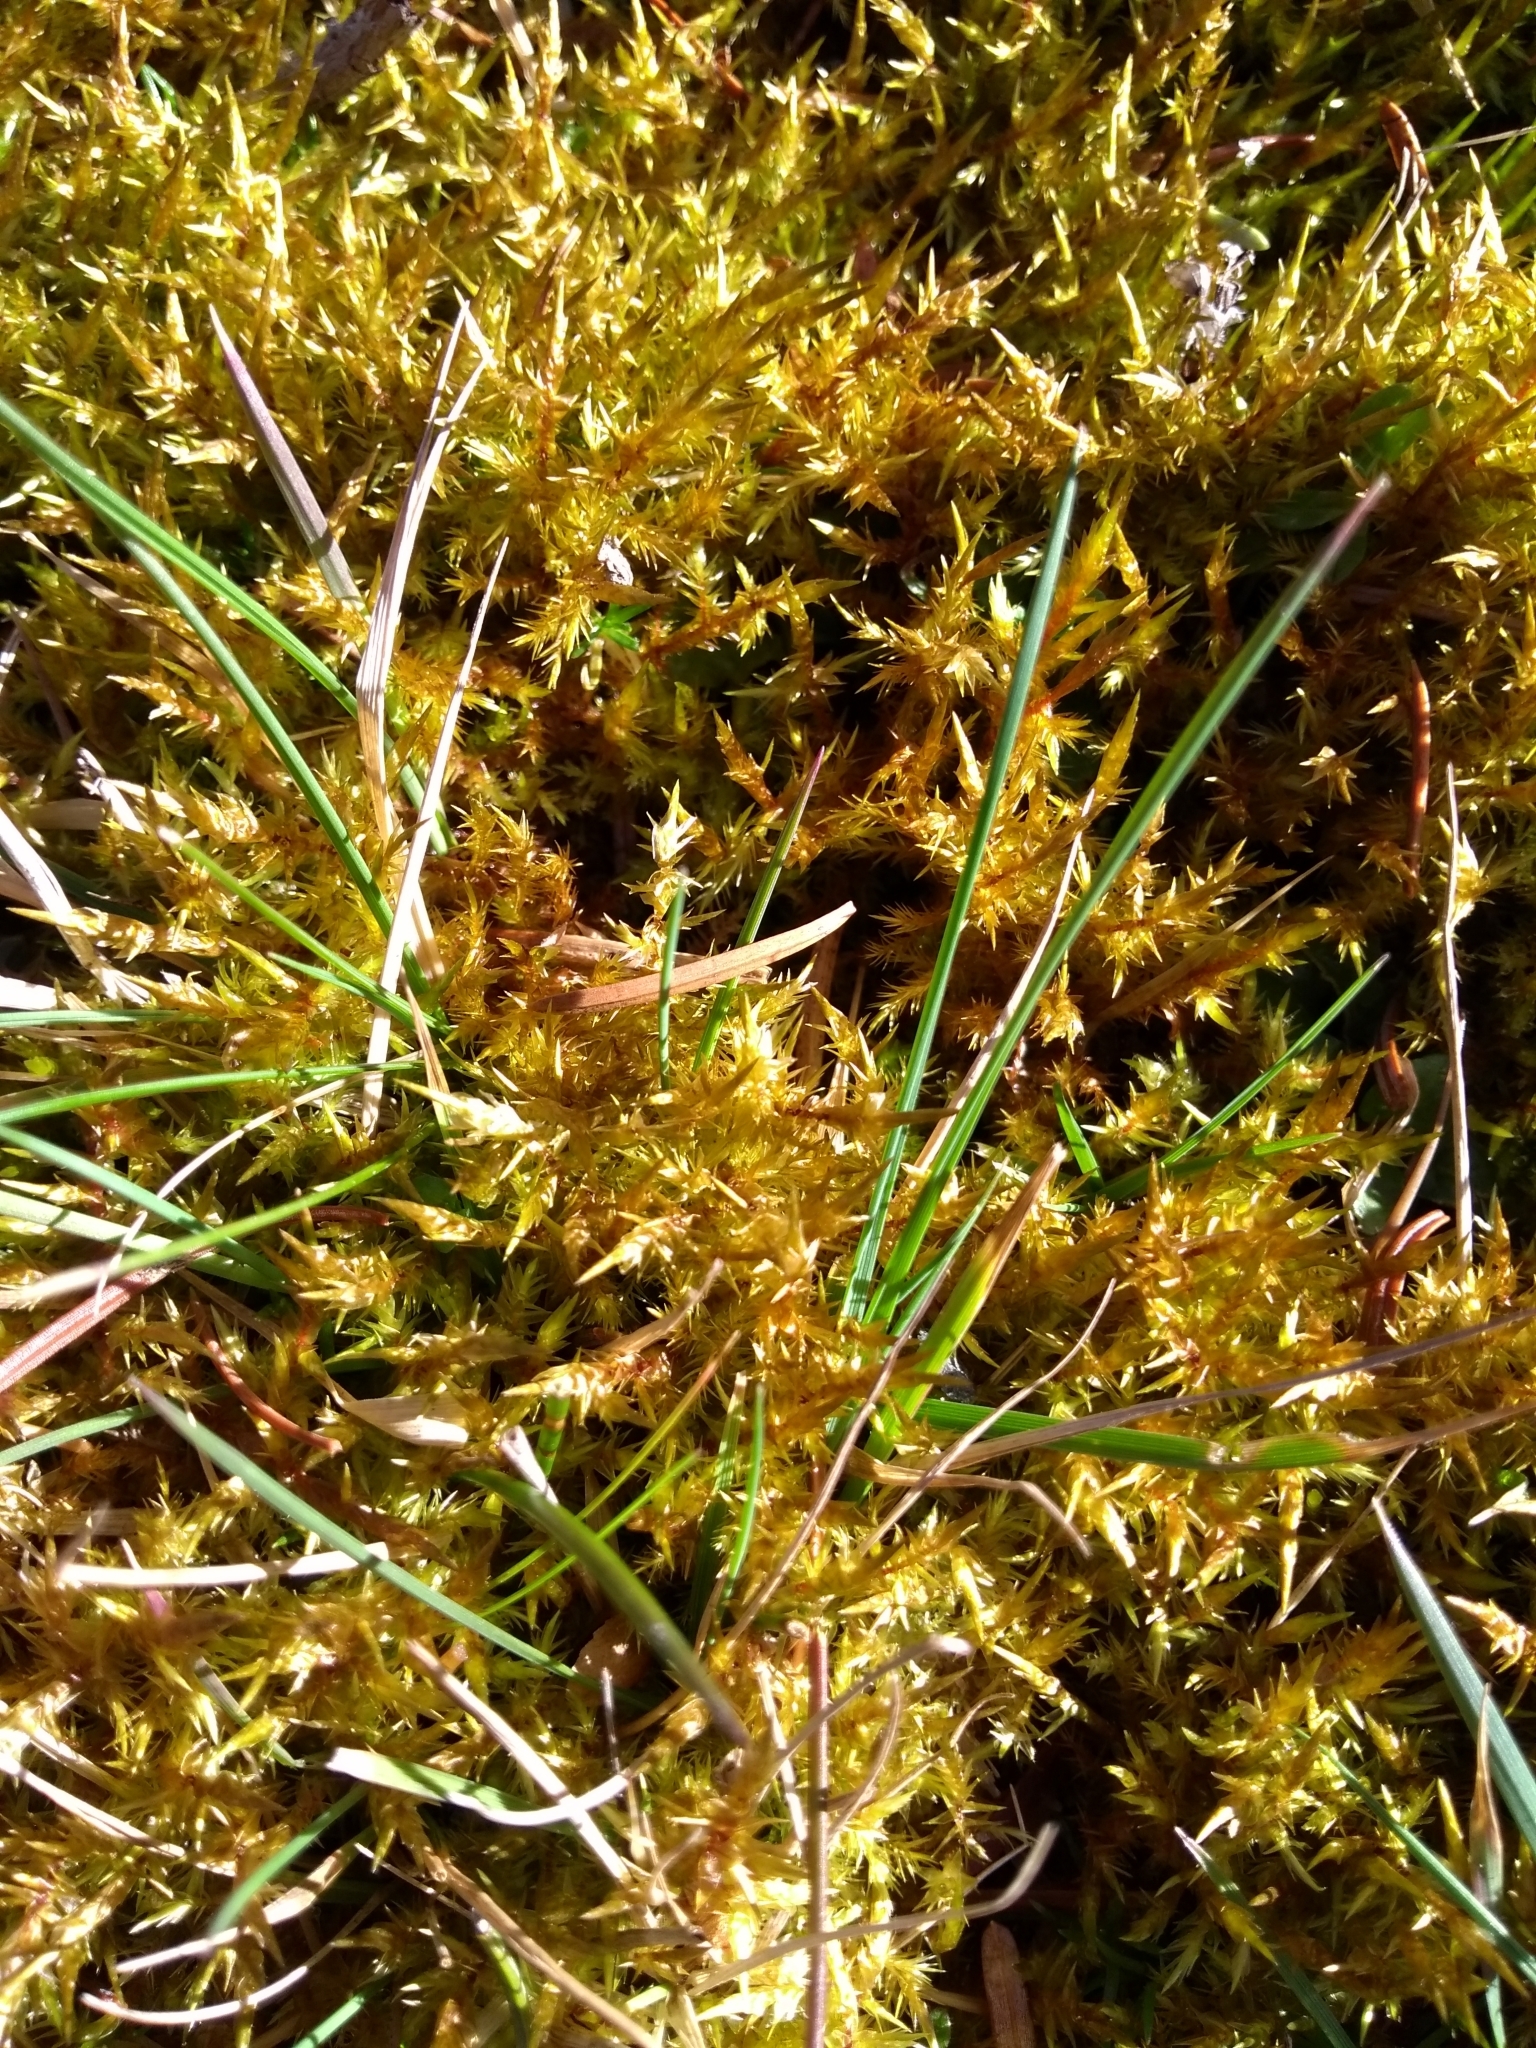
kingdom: Plantae
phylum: Bryophyta
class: Bryopsida
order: Hypnales
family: Pylaisiaceae
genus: Calliergonella
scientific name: Calliergonella cuspidata
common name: Common large wetland moss
